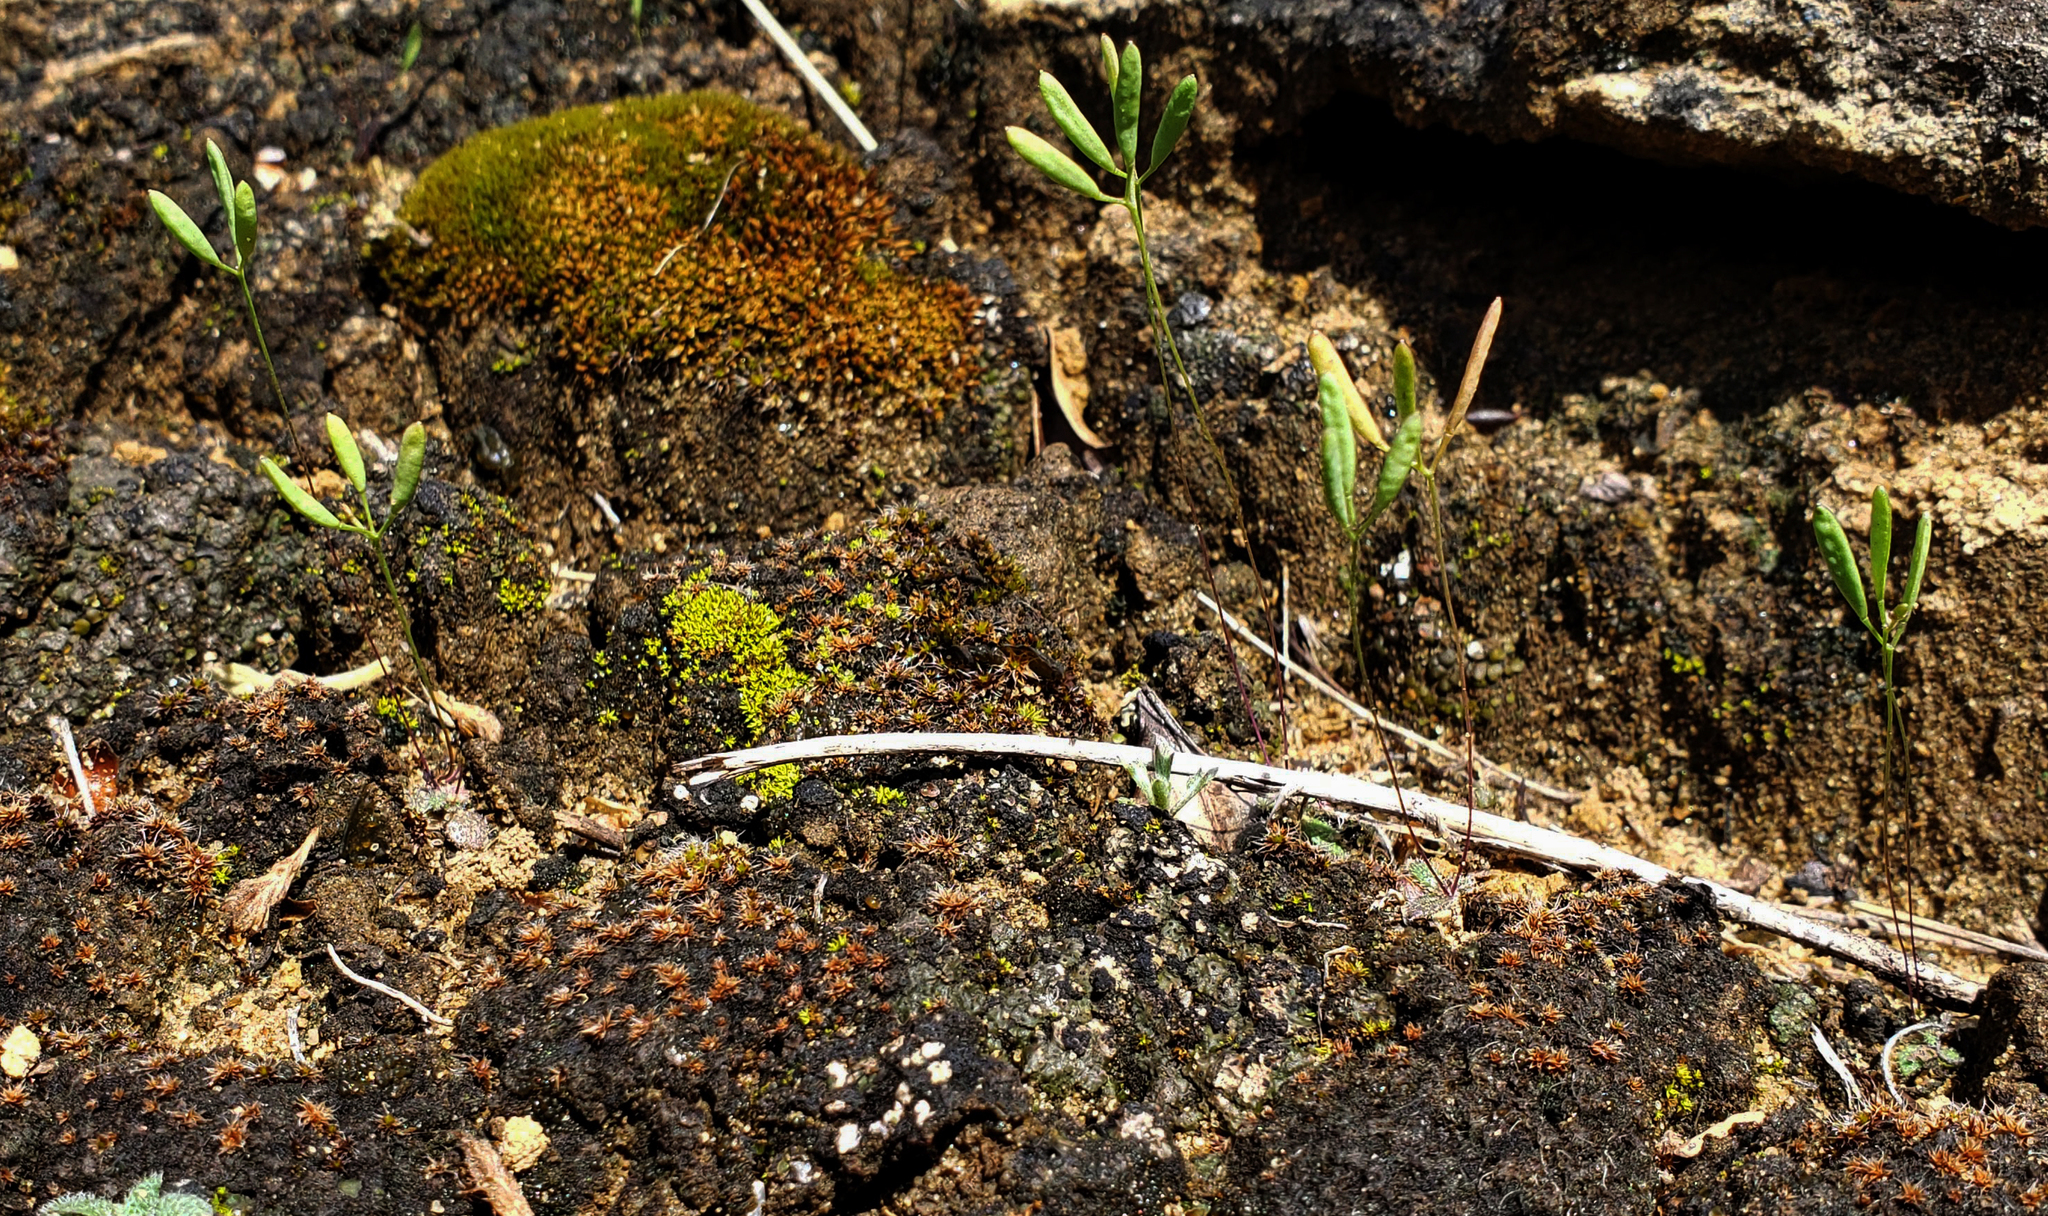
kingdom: Plantae
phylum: Tracheophyta
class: Magnoliopsida
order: Brassicales
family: Brassicaceae
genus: Tomostima
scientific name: Tomostima reptans
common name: Carolina draba
